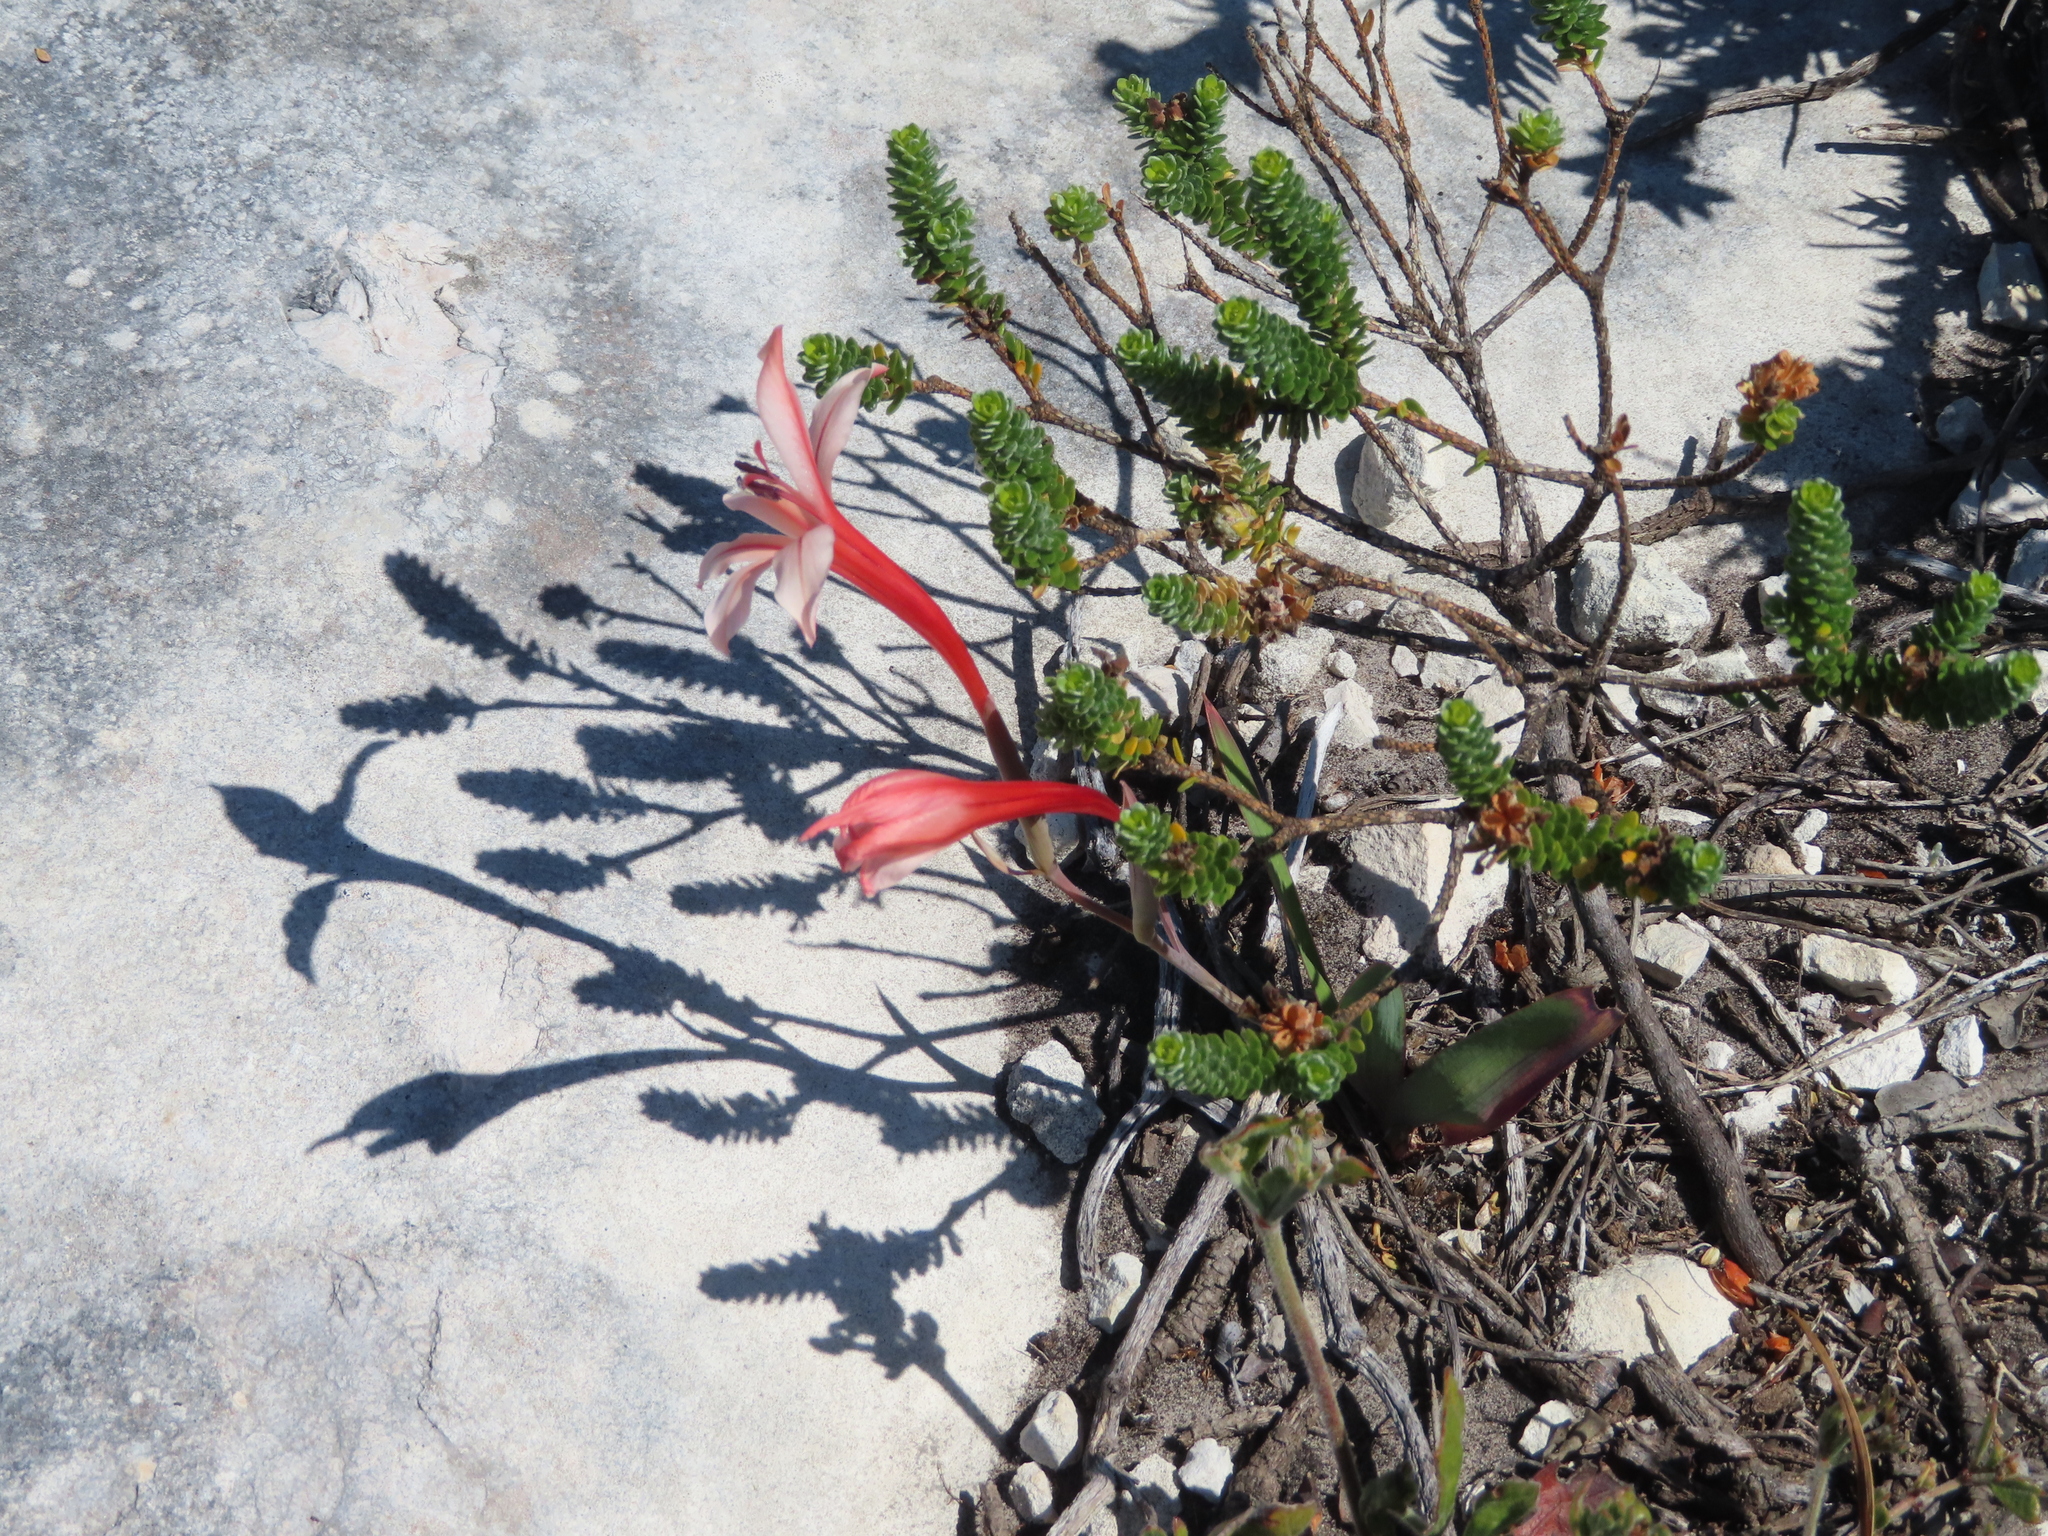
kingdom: Plantae
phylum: Tracheophyta
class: Liliopsida
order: Asparagales
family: Iridaceae
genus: Gladiolus
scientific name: Gladiolus miniatus
